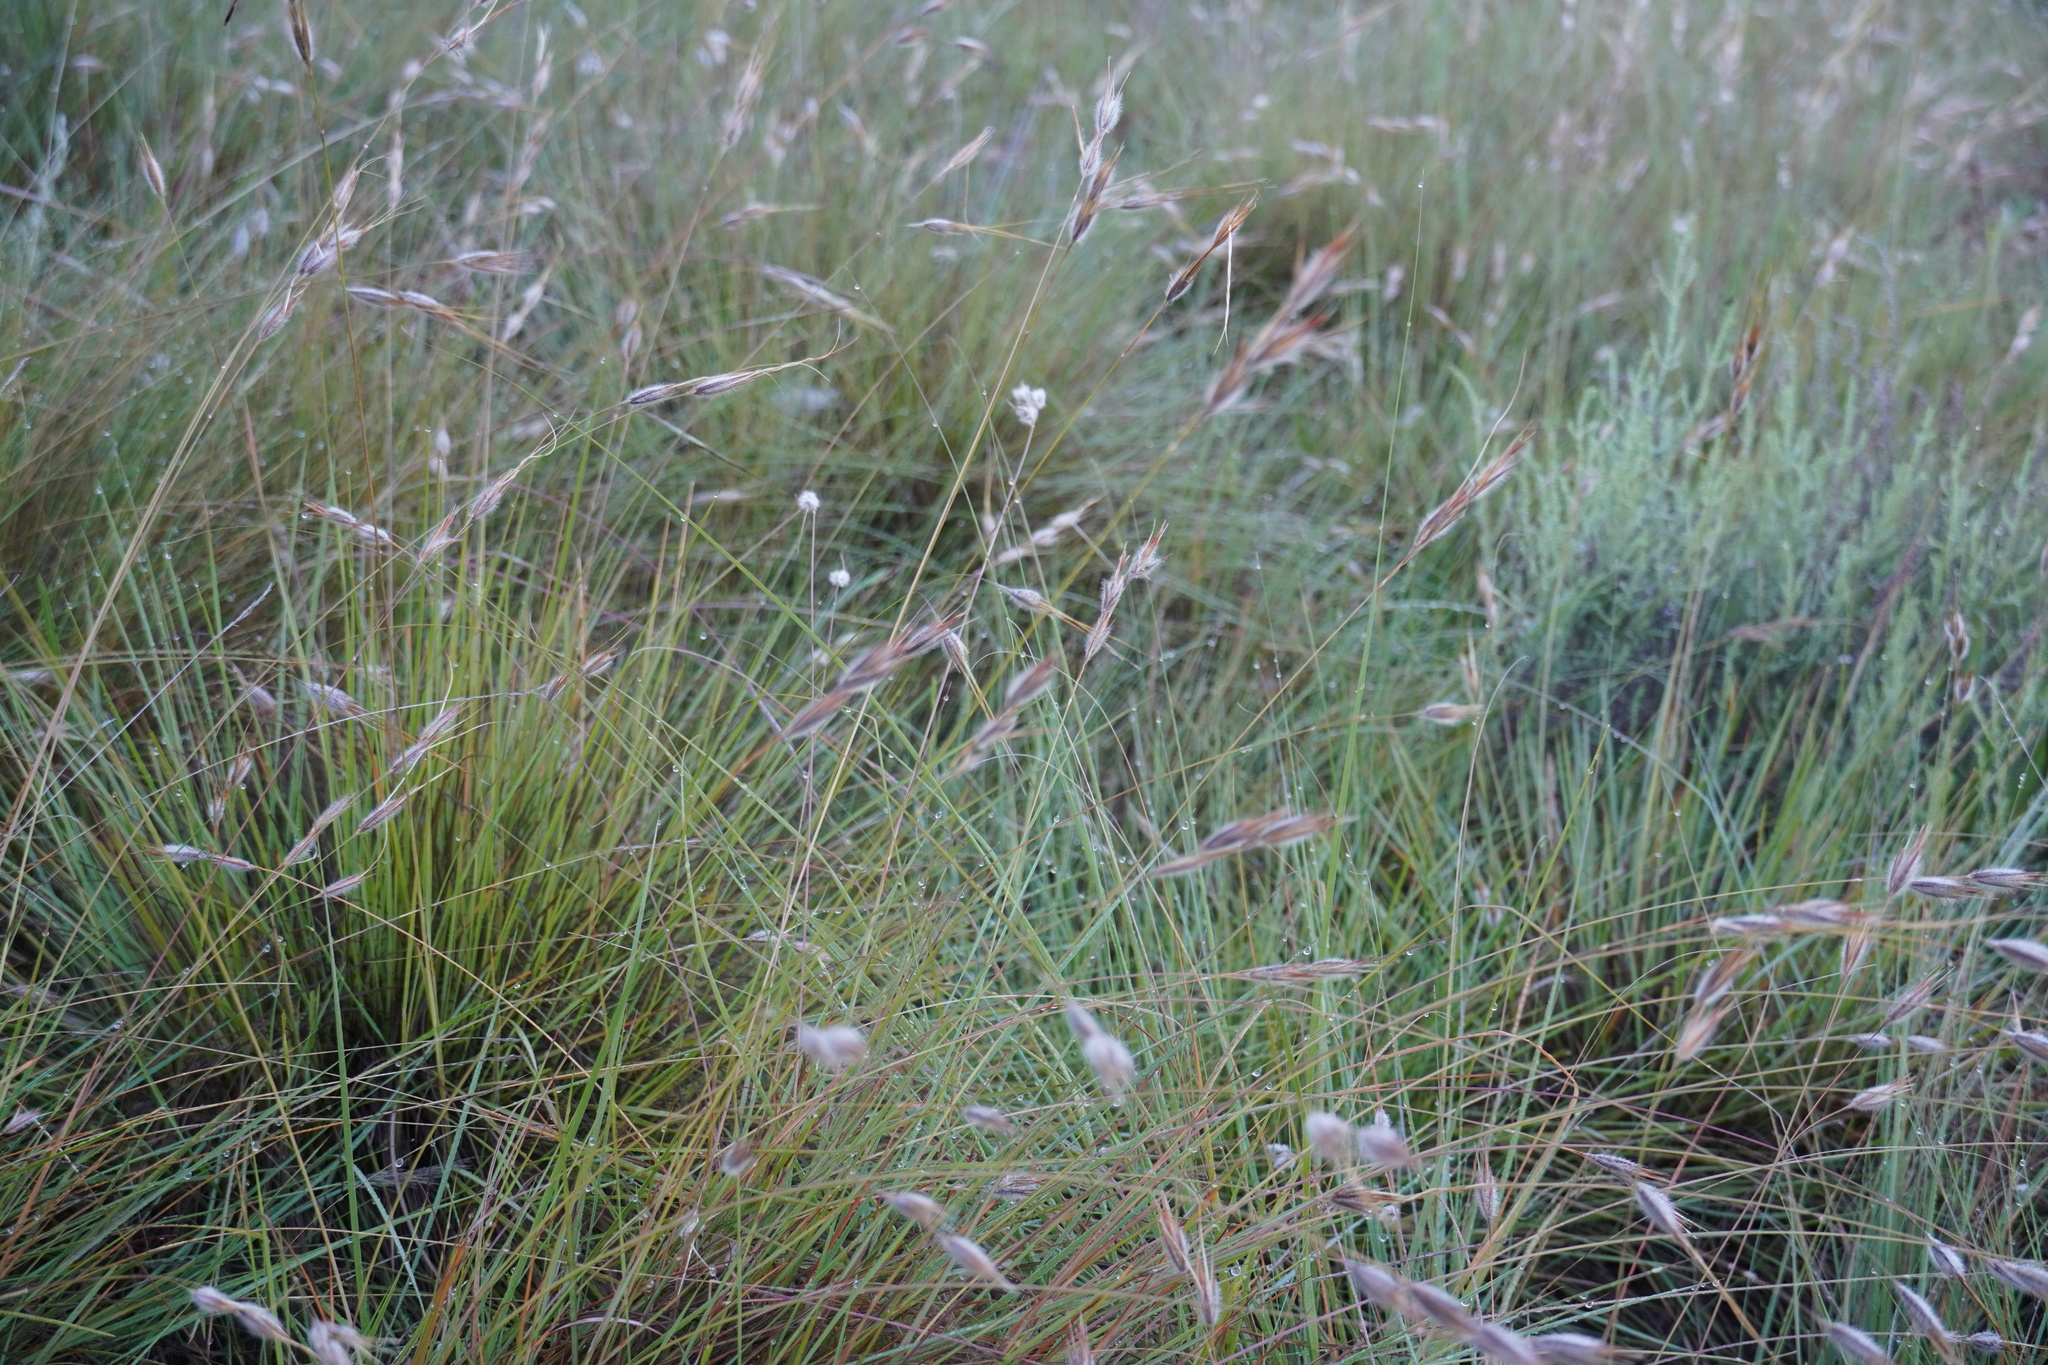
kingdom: Plantae
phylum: Tracheophyta
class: Liliopsida
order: Poales
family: Poaceae
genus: Tristachya
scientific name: Tristachya leucothrix
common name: Trident grass
